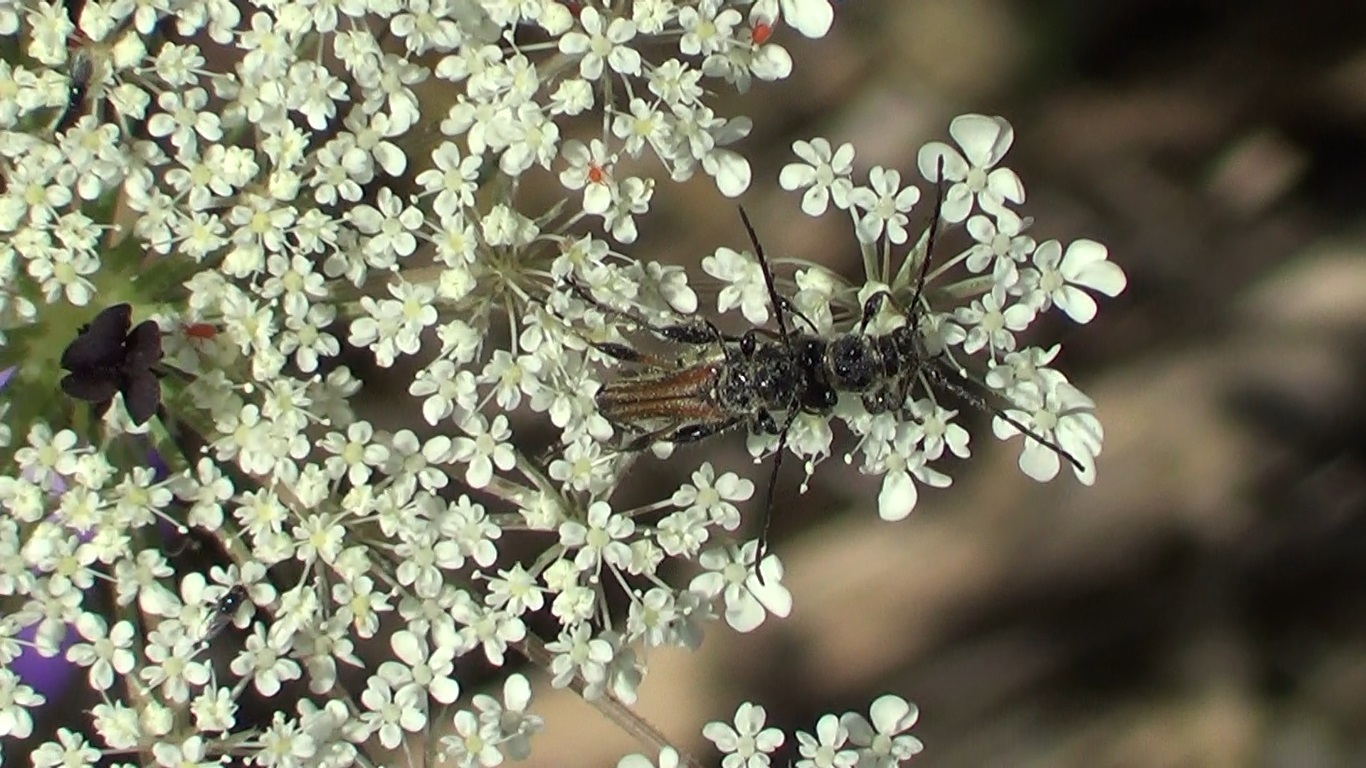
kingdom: Animalia
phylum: Arthropoda
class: Insecta
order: Coleoptera
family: Cerambycidae
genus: Stenopterus
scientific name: Stenopterus ater
